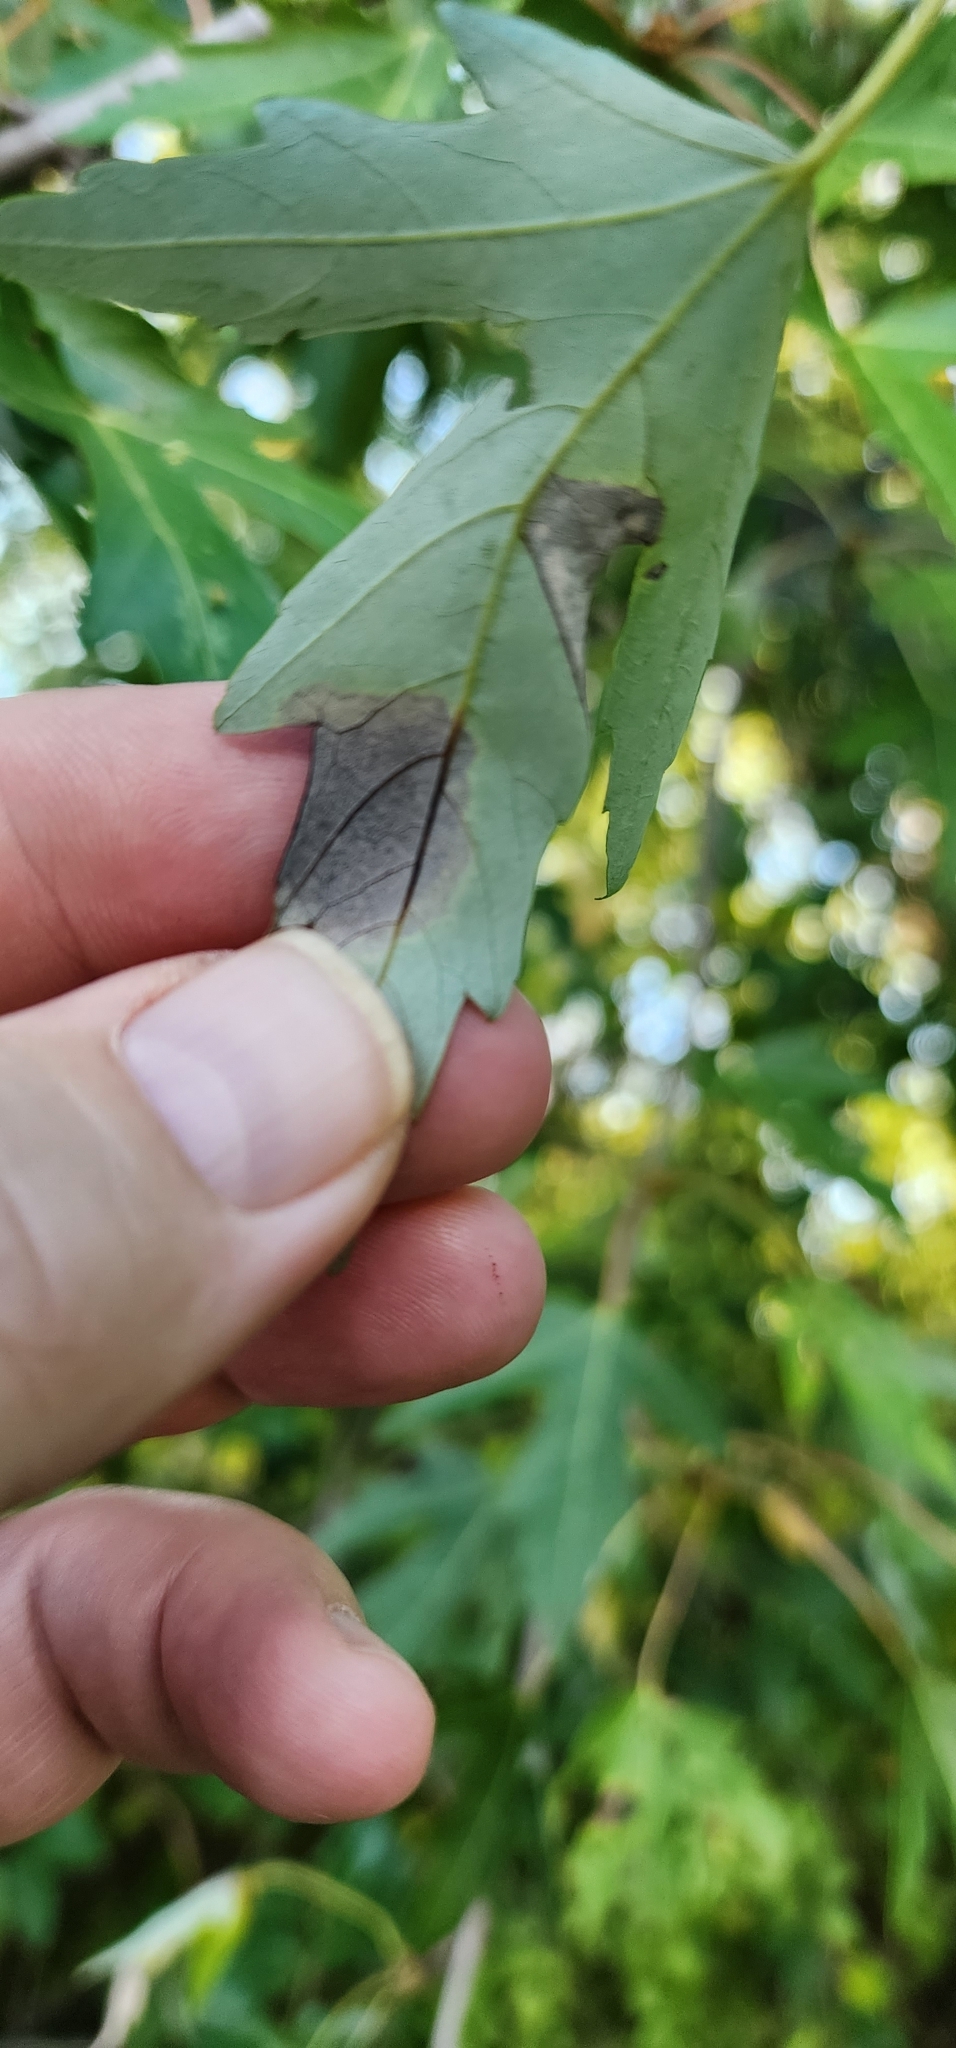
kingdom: Fungi
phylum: Ascomycota
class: Leotiomycetes
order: Rhytismatales
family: Rhytismataceae
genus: Rhytisma
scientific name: Rhytisma americanum
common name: American tar spot
